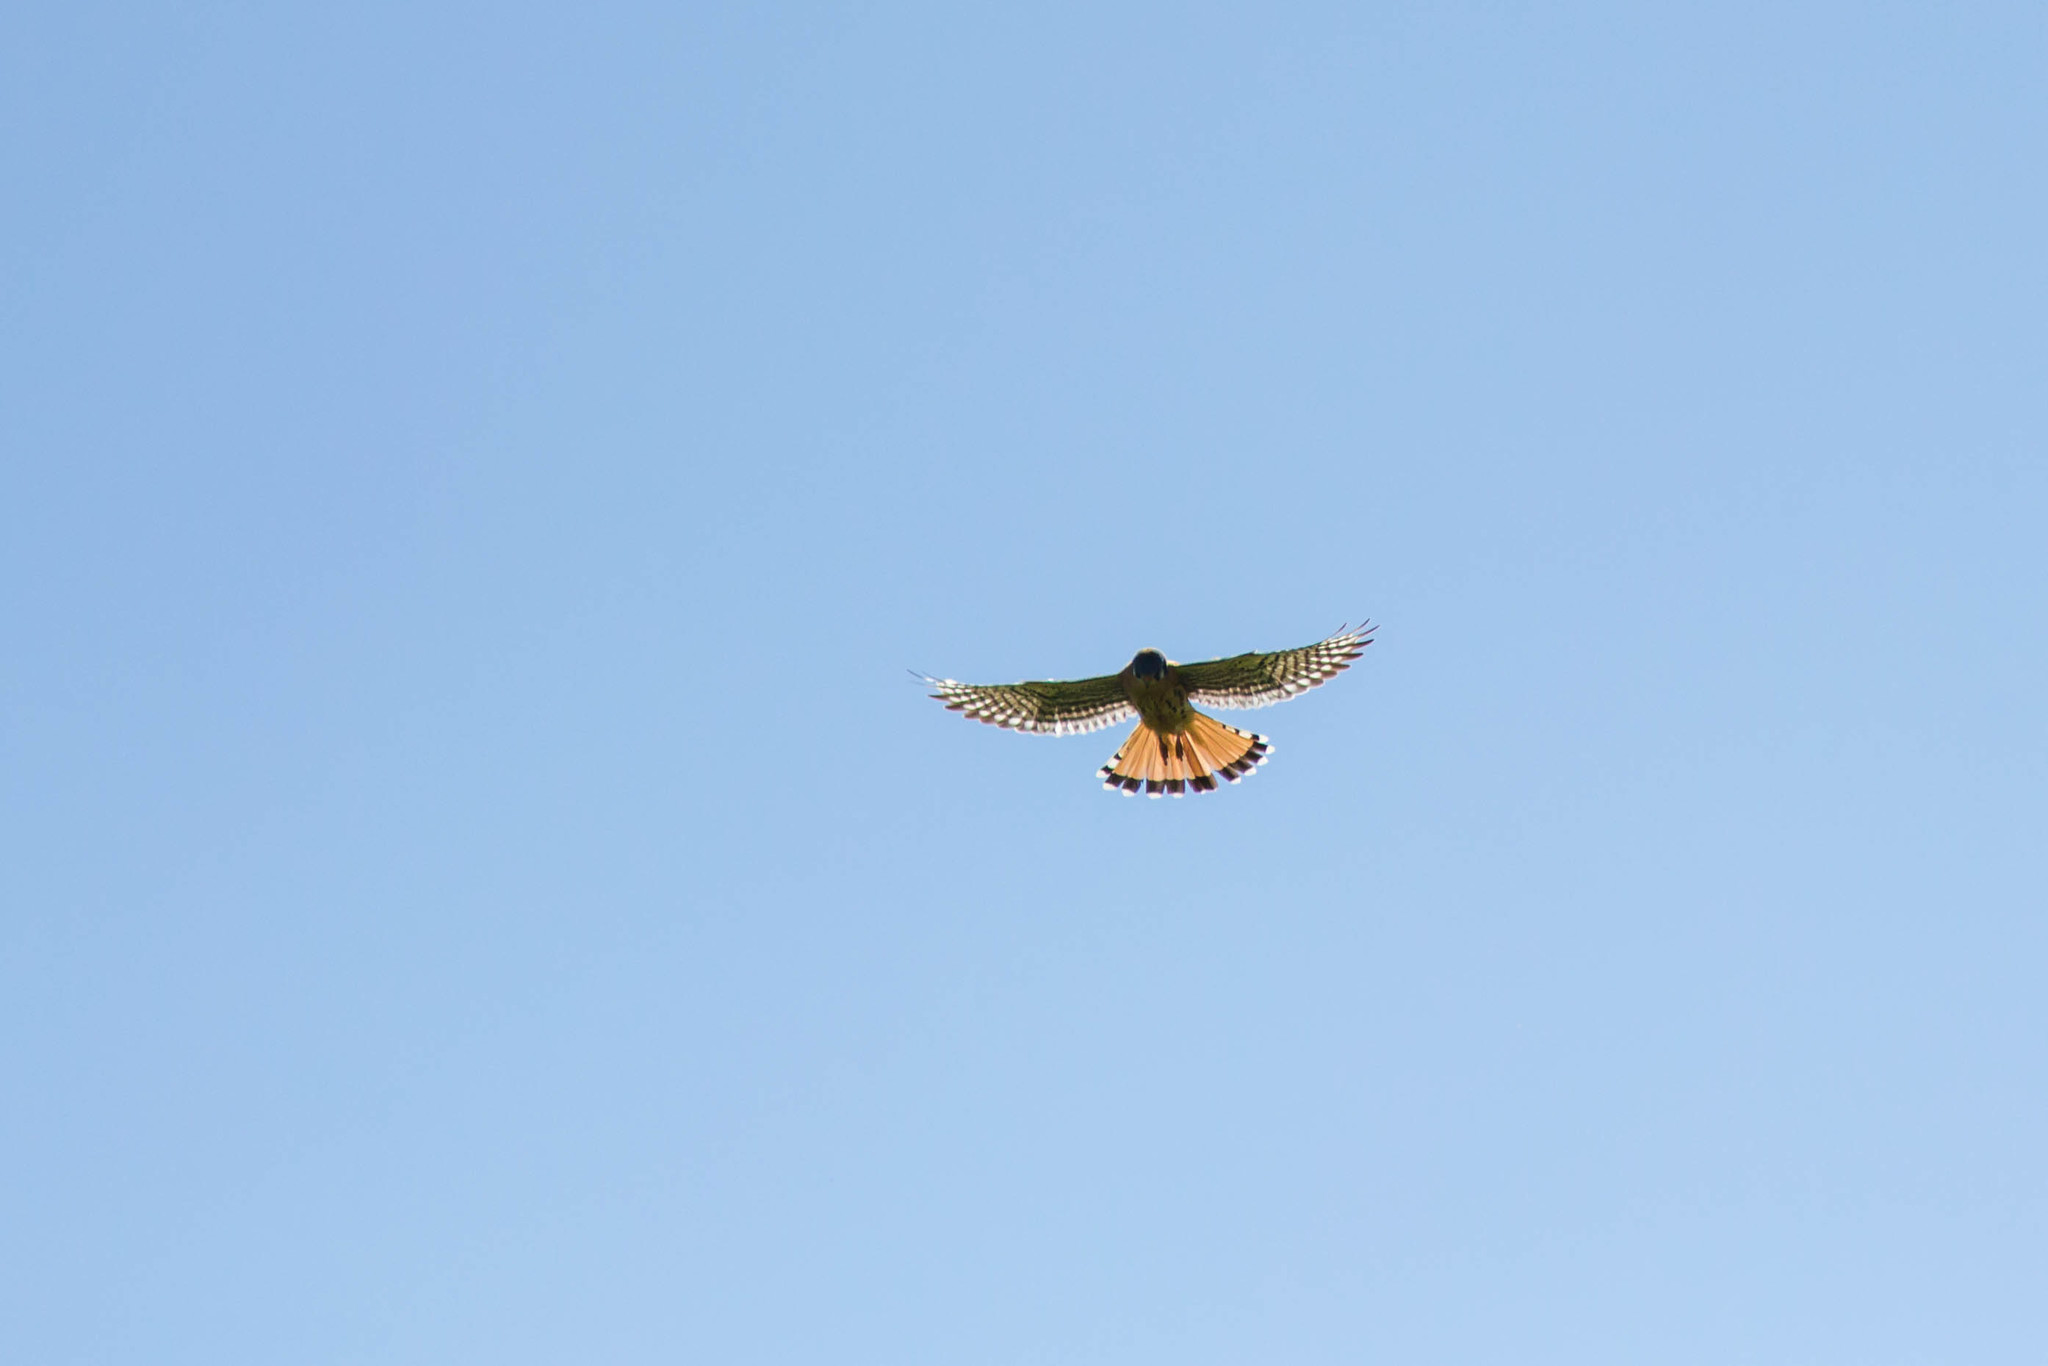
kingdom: Animalia
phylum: Chordata
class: Aves
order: Falconiformes
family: Falconidae
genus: Falco
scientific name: Falco sparverius
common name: American kestrel
